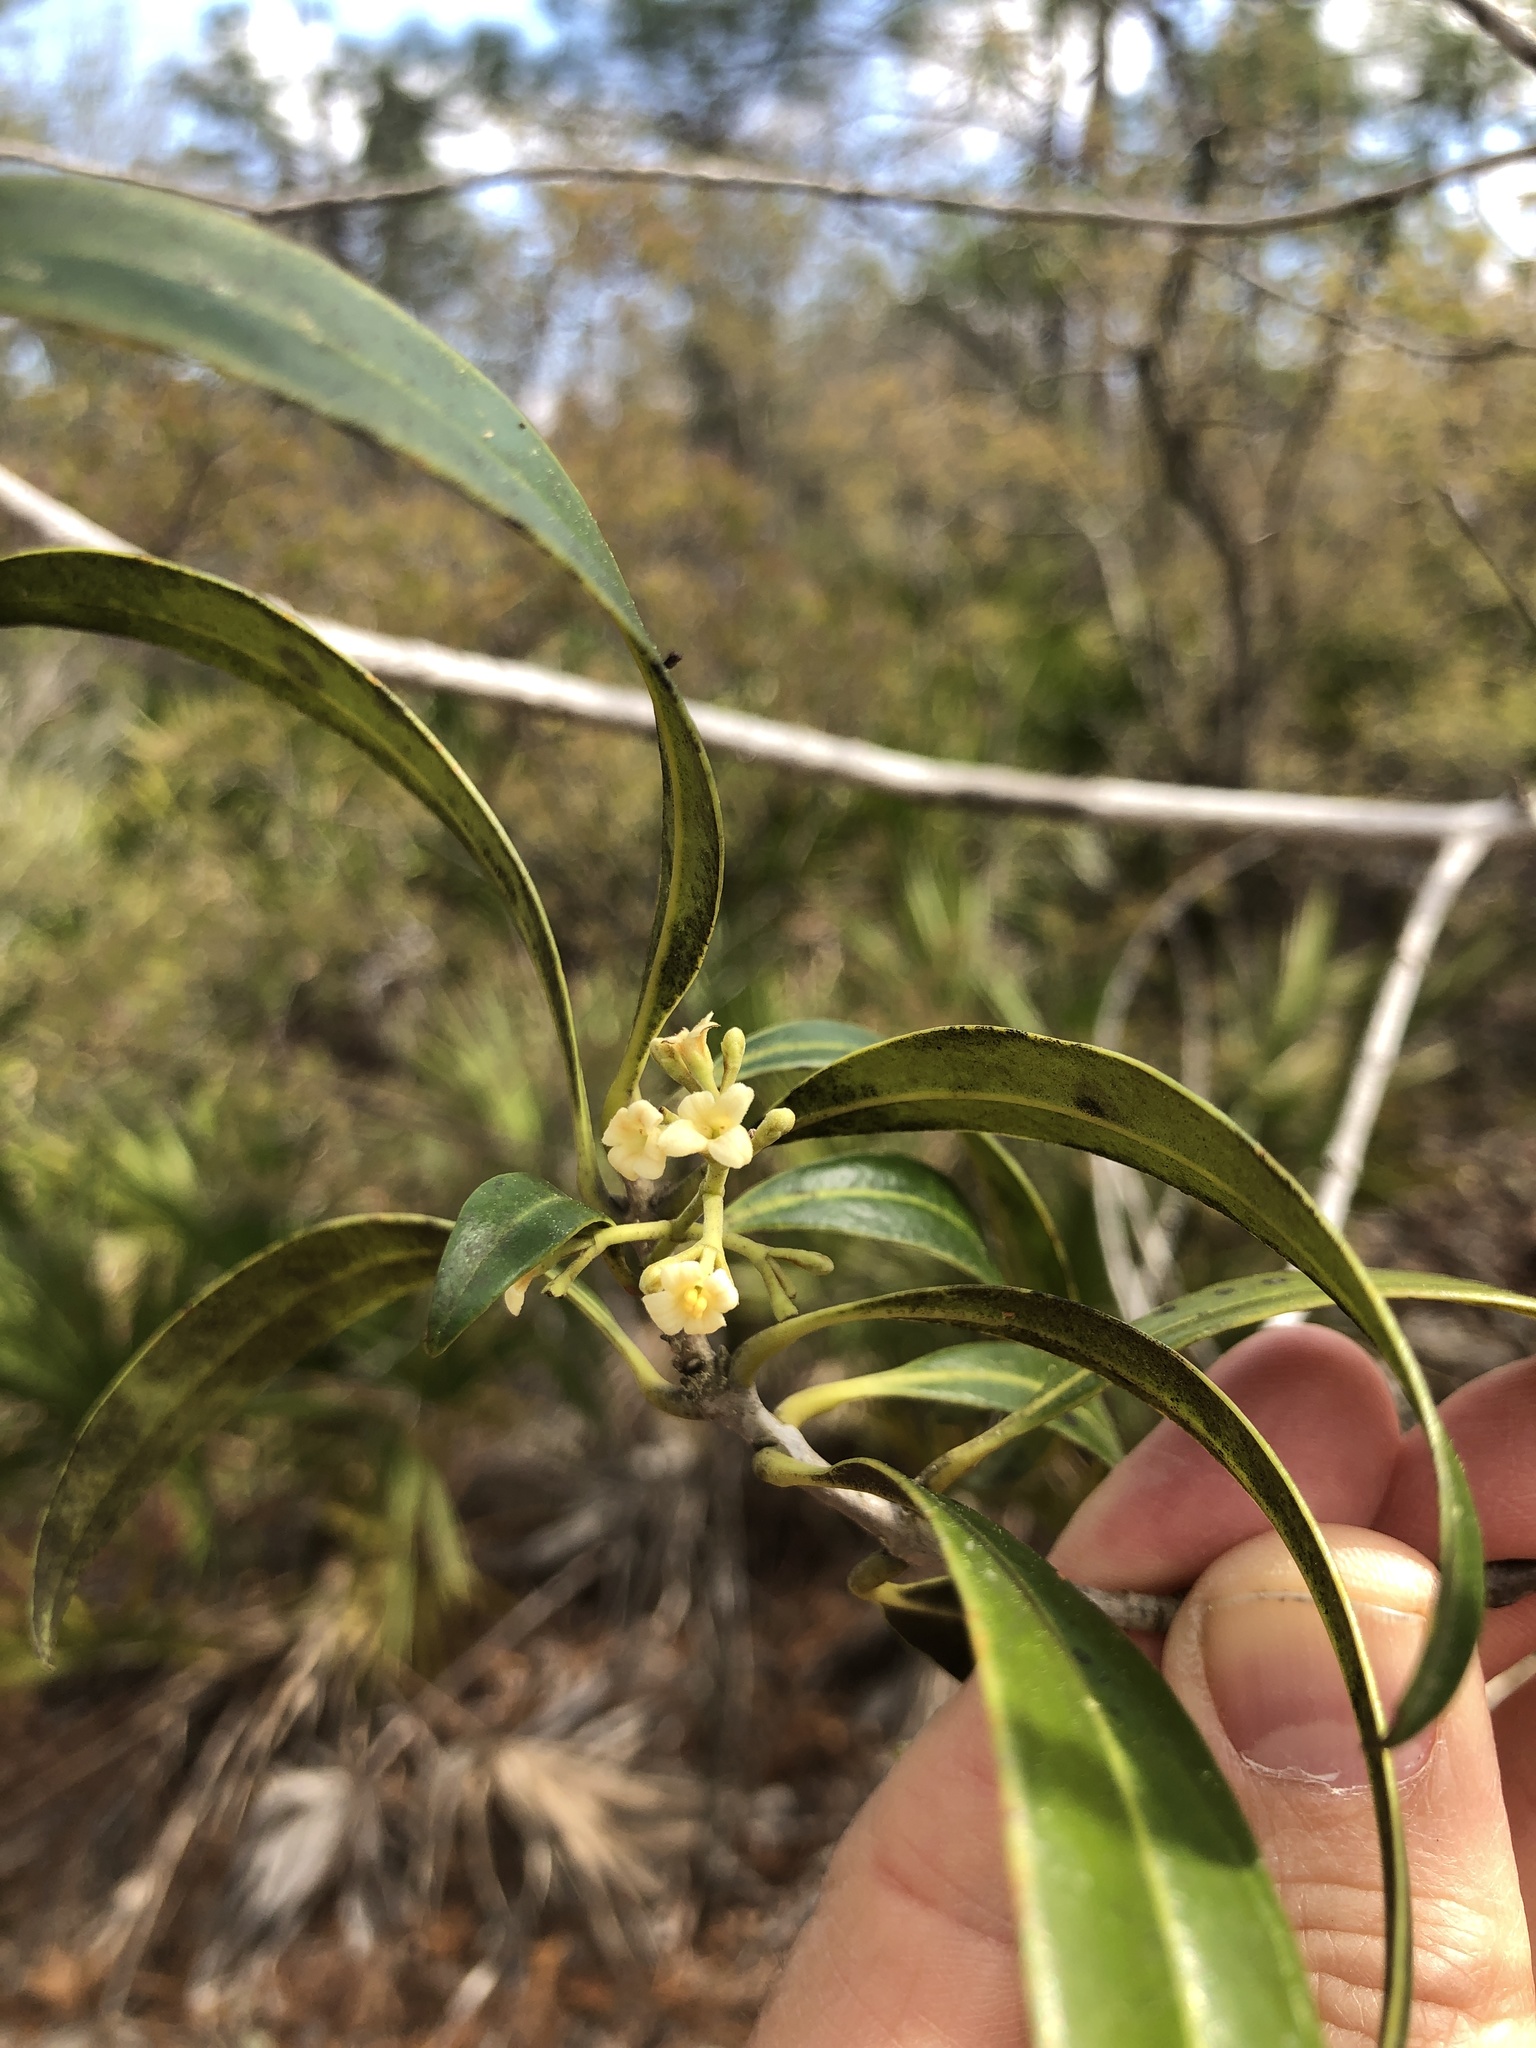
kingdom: Plantae
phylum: Tracheophyta
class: Magnoliopsida
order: Lamiales
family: Oleaceae
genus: Cartrema
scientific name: Cartrema americana
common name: Devilwood
